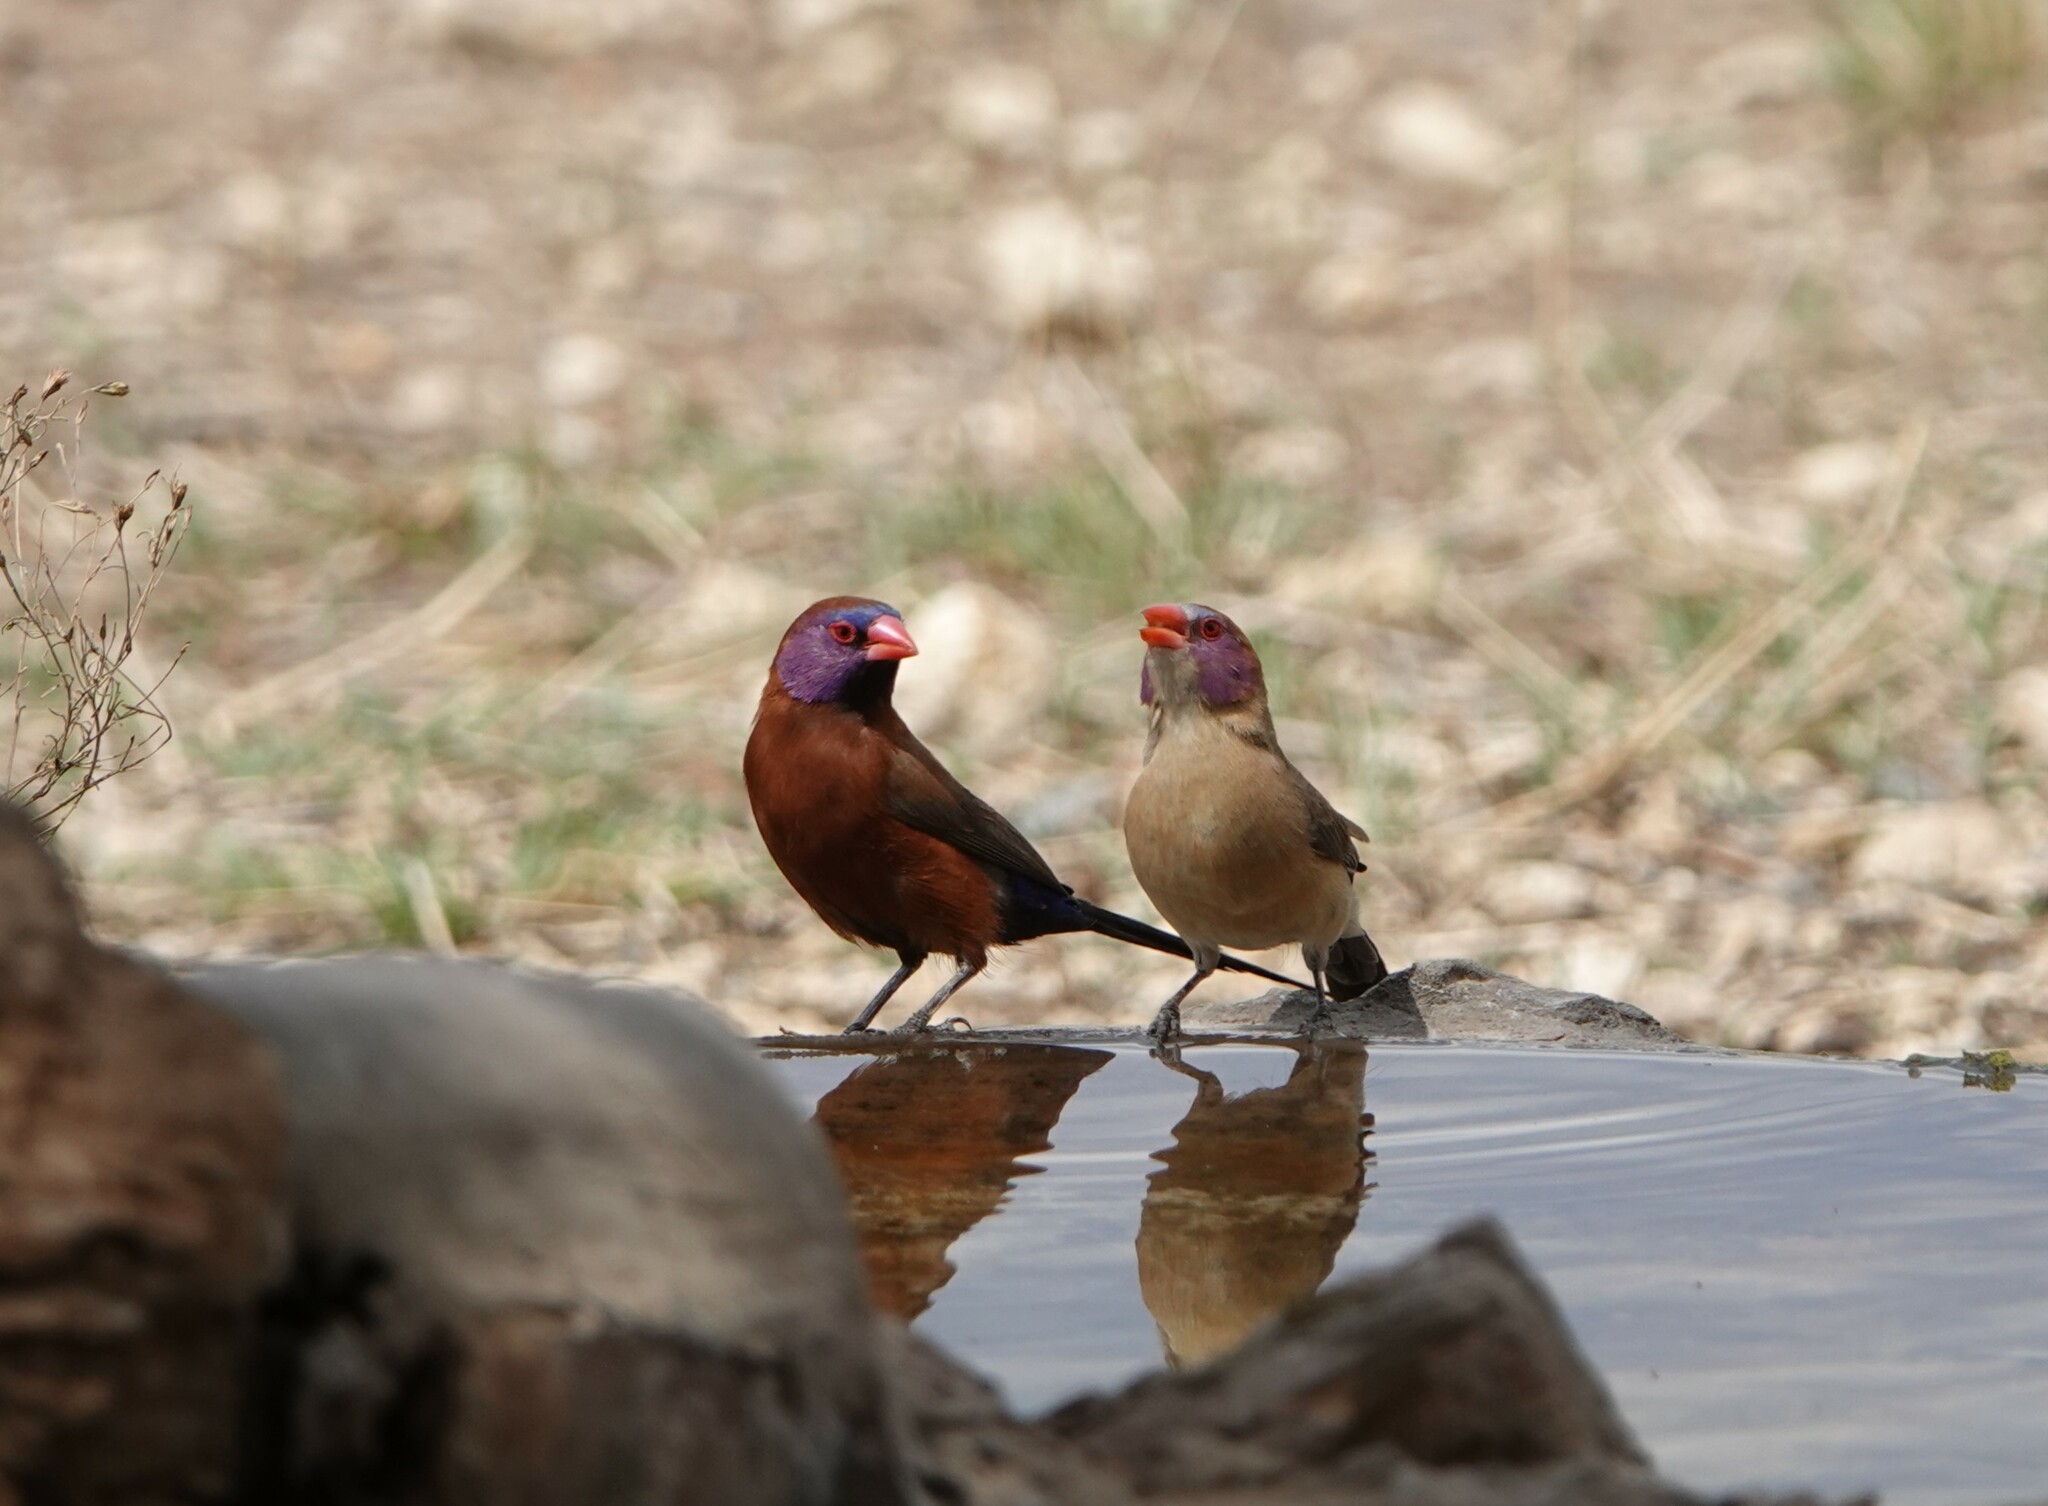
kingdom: Animalia
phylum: Chordata
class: Aves
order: Passeriformes
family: Estrildidae
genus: Uraeginthus
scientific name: Uraeginthus granatinus
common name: Violet-eared waxbill
